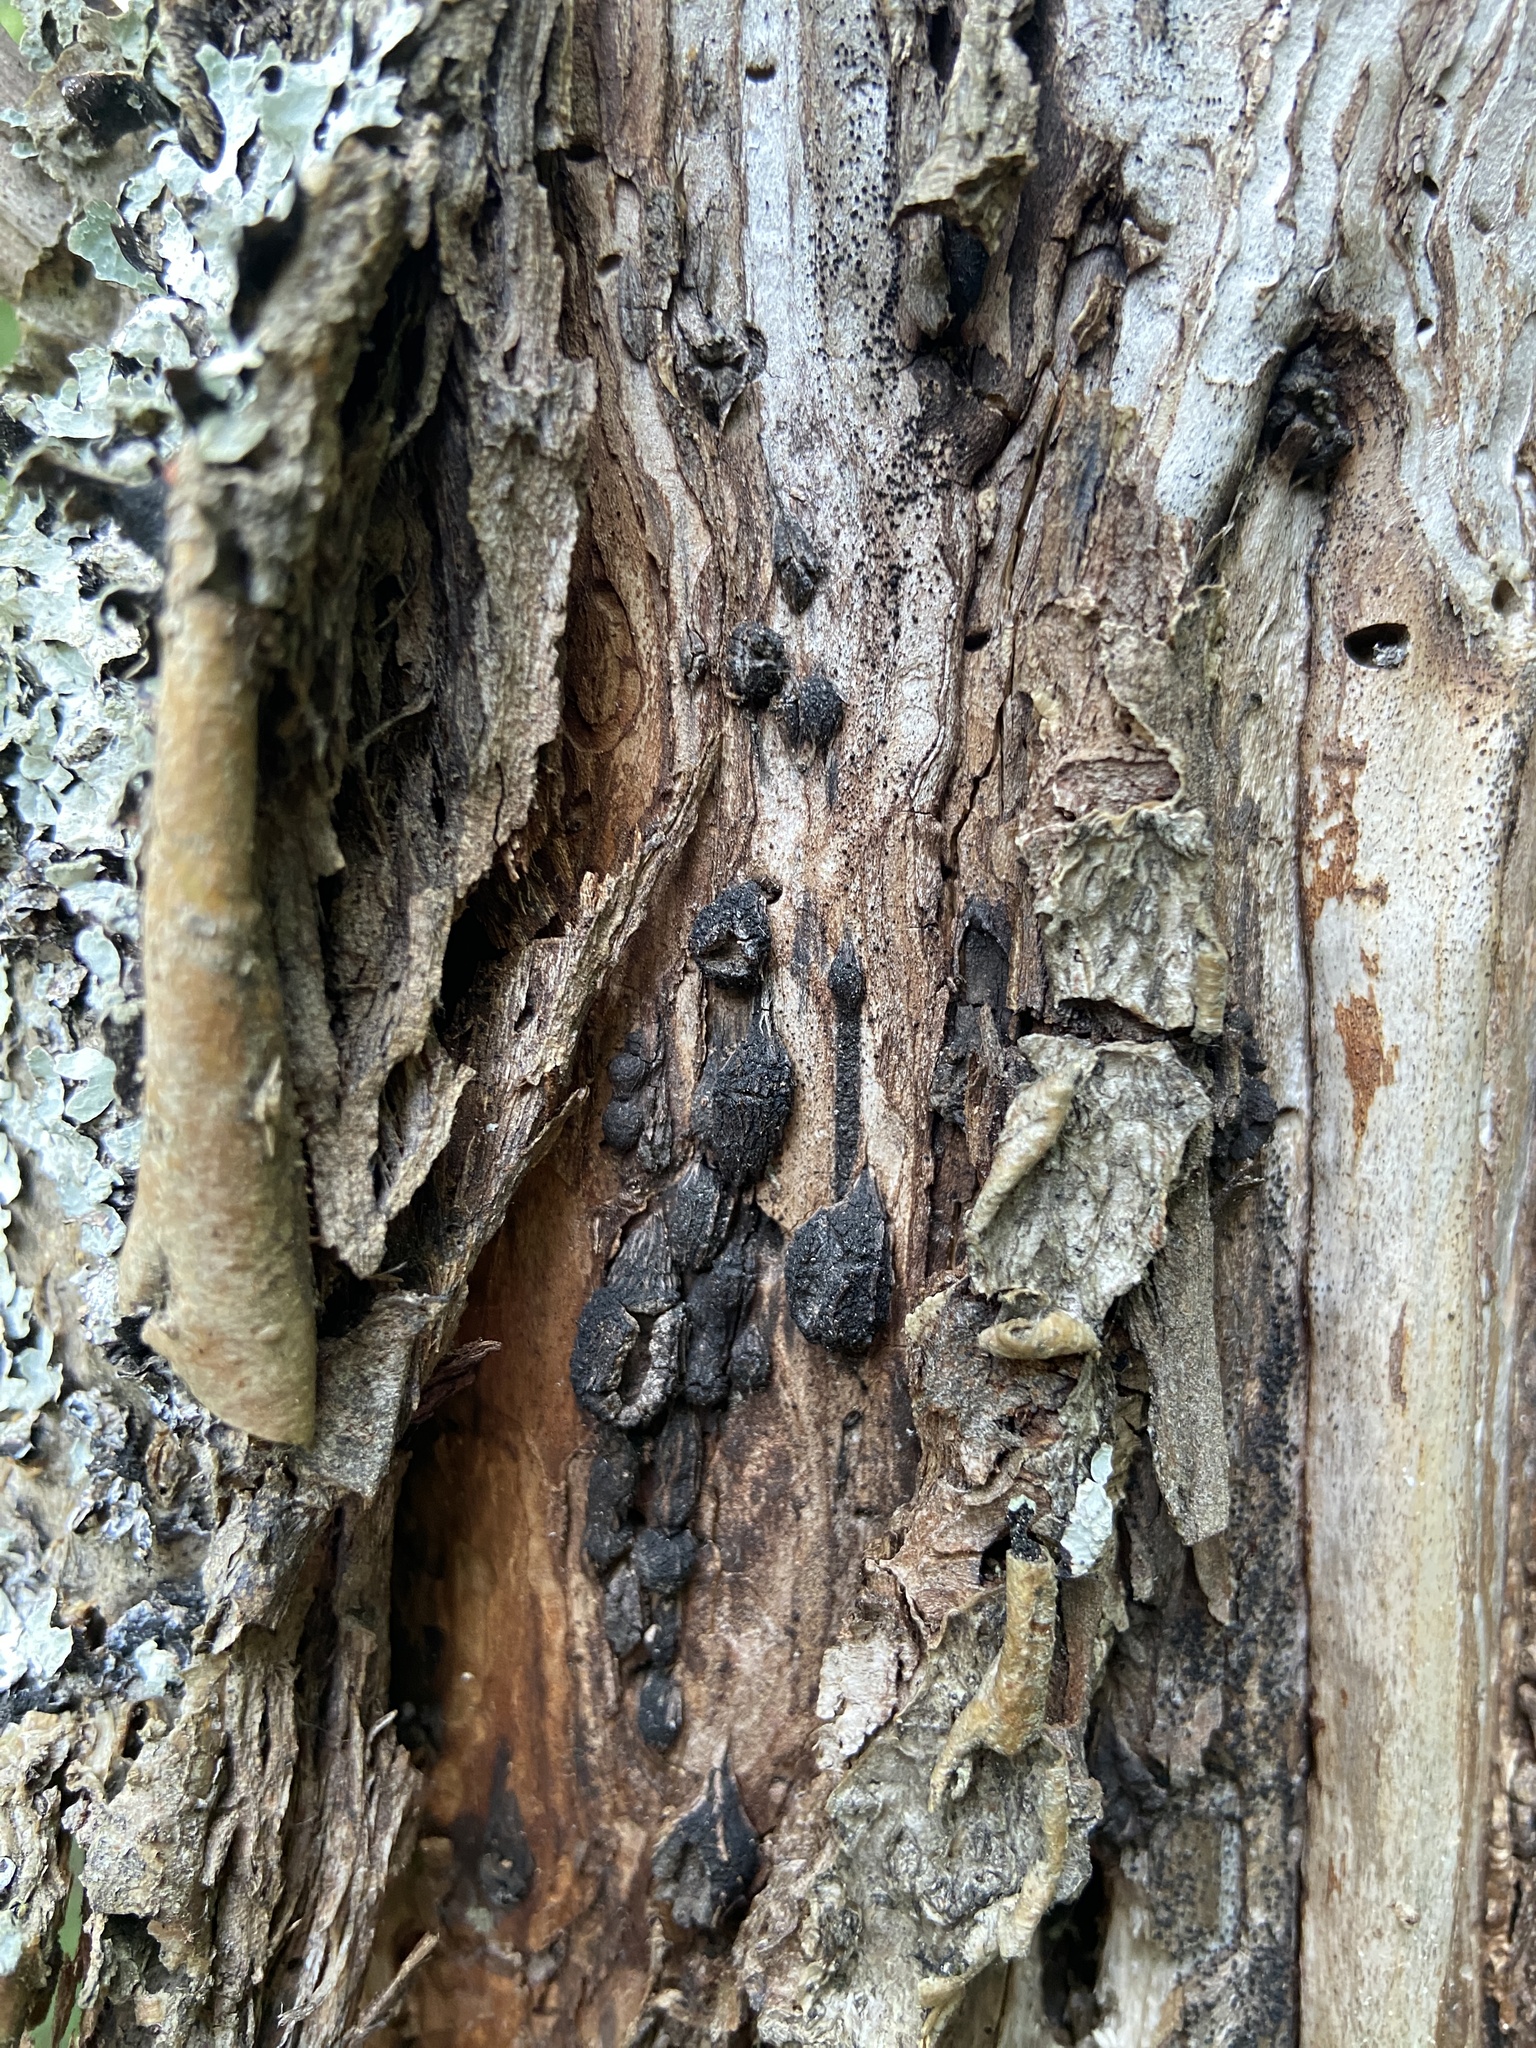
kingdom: Fungi
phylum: Ascomycota
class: Sordariomycetes
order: Xylariales
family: Graphostromataceae
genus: Biscogniauxia
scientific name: Biscogniauxia repanda
